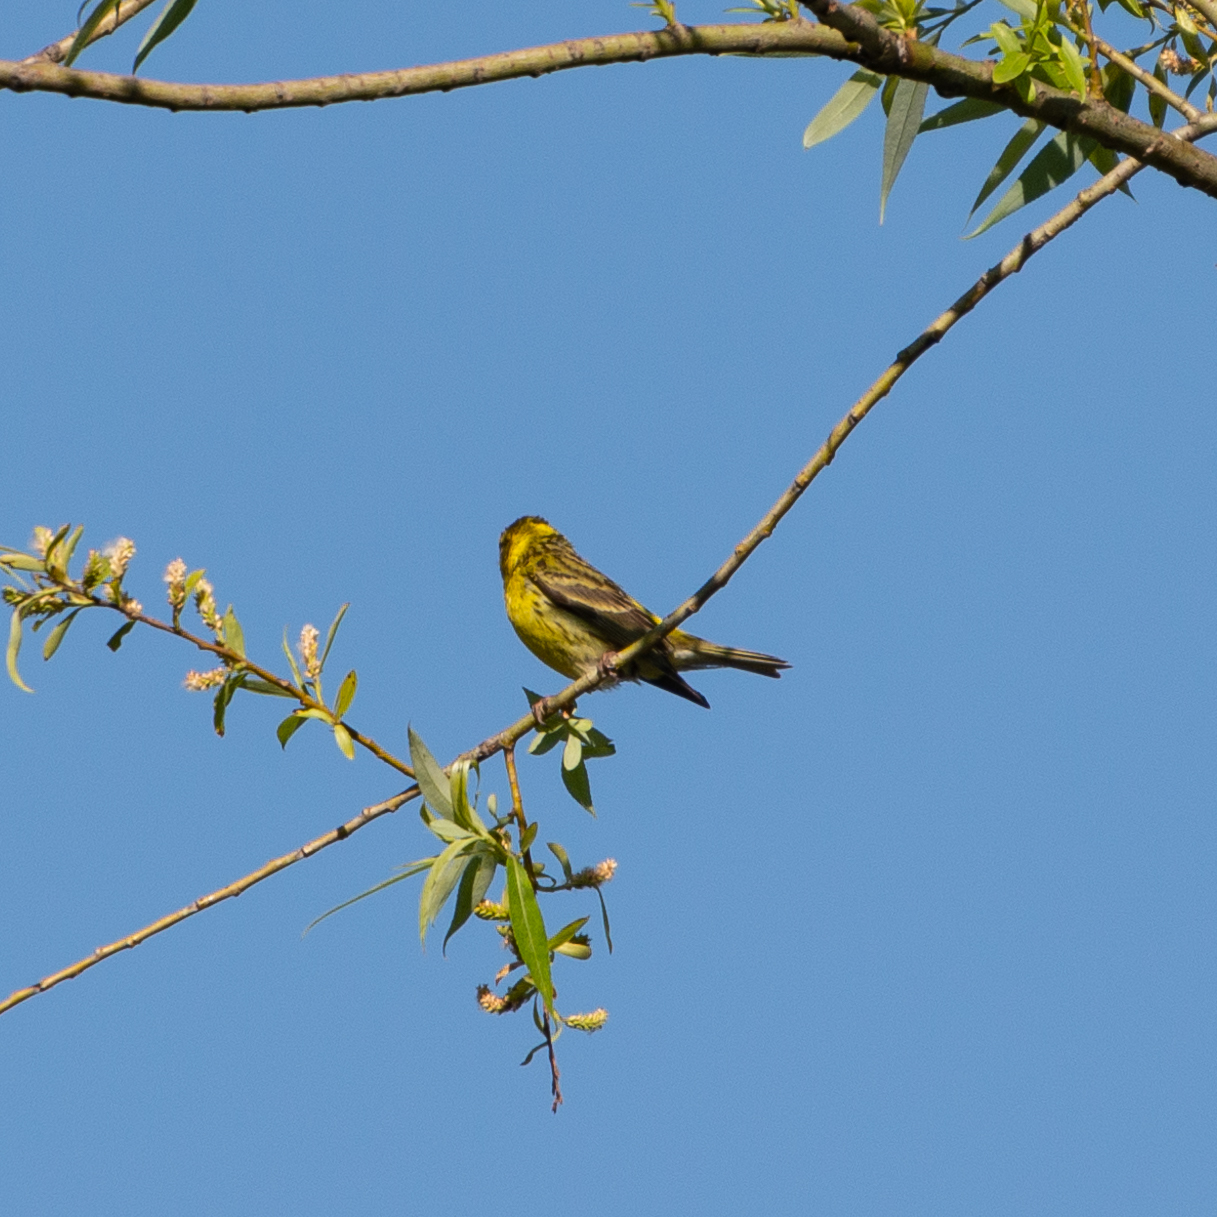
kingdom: Animalia
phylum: Chordata
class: Aves
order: Passeriformes
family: Fringillidae
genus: Serinus
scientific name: Serinus serinus
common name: European serin
